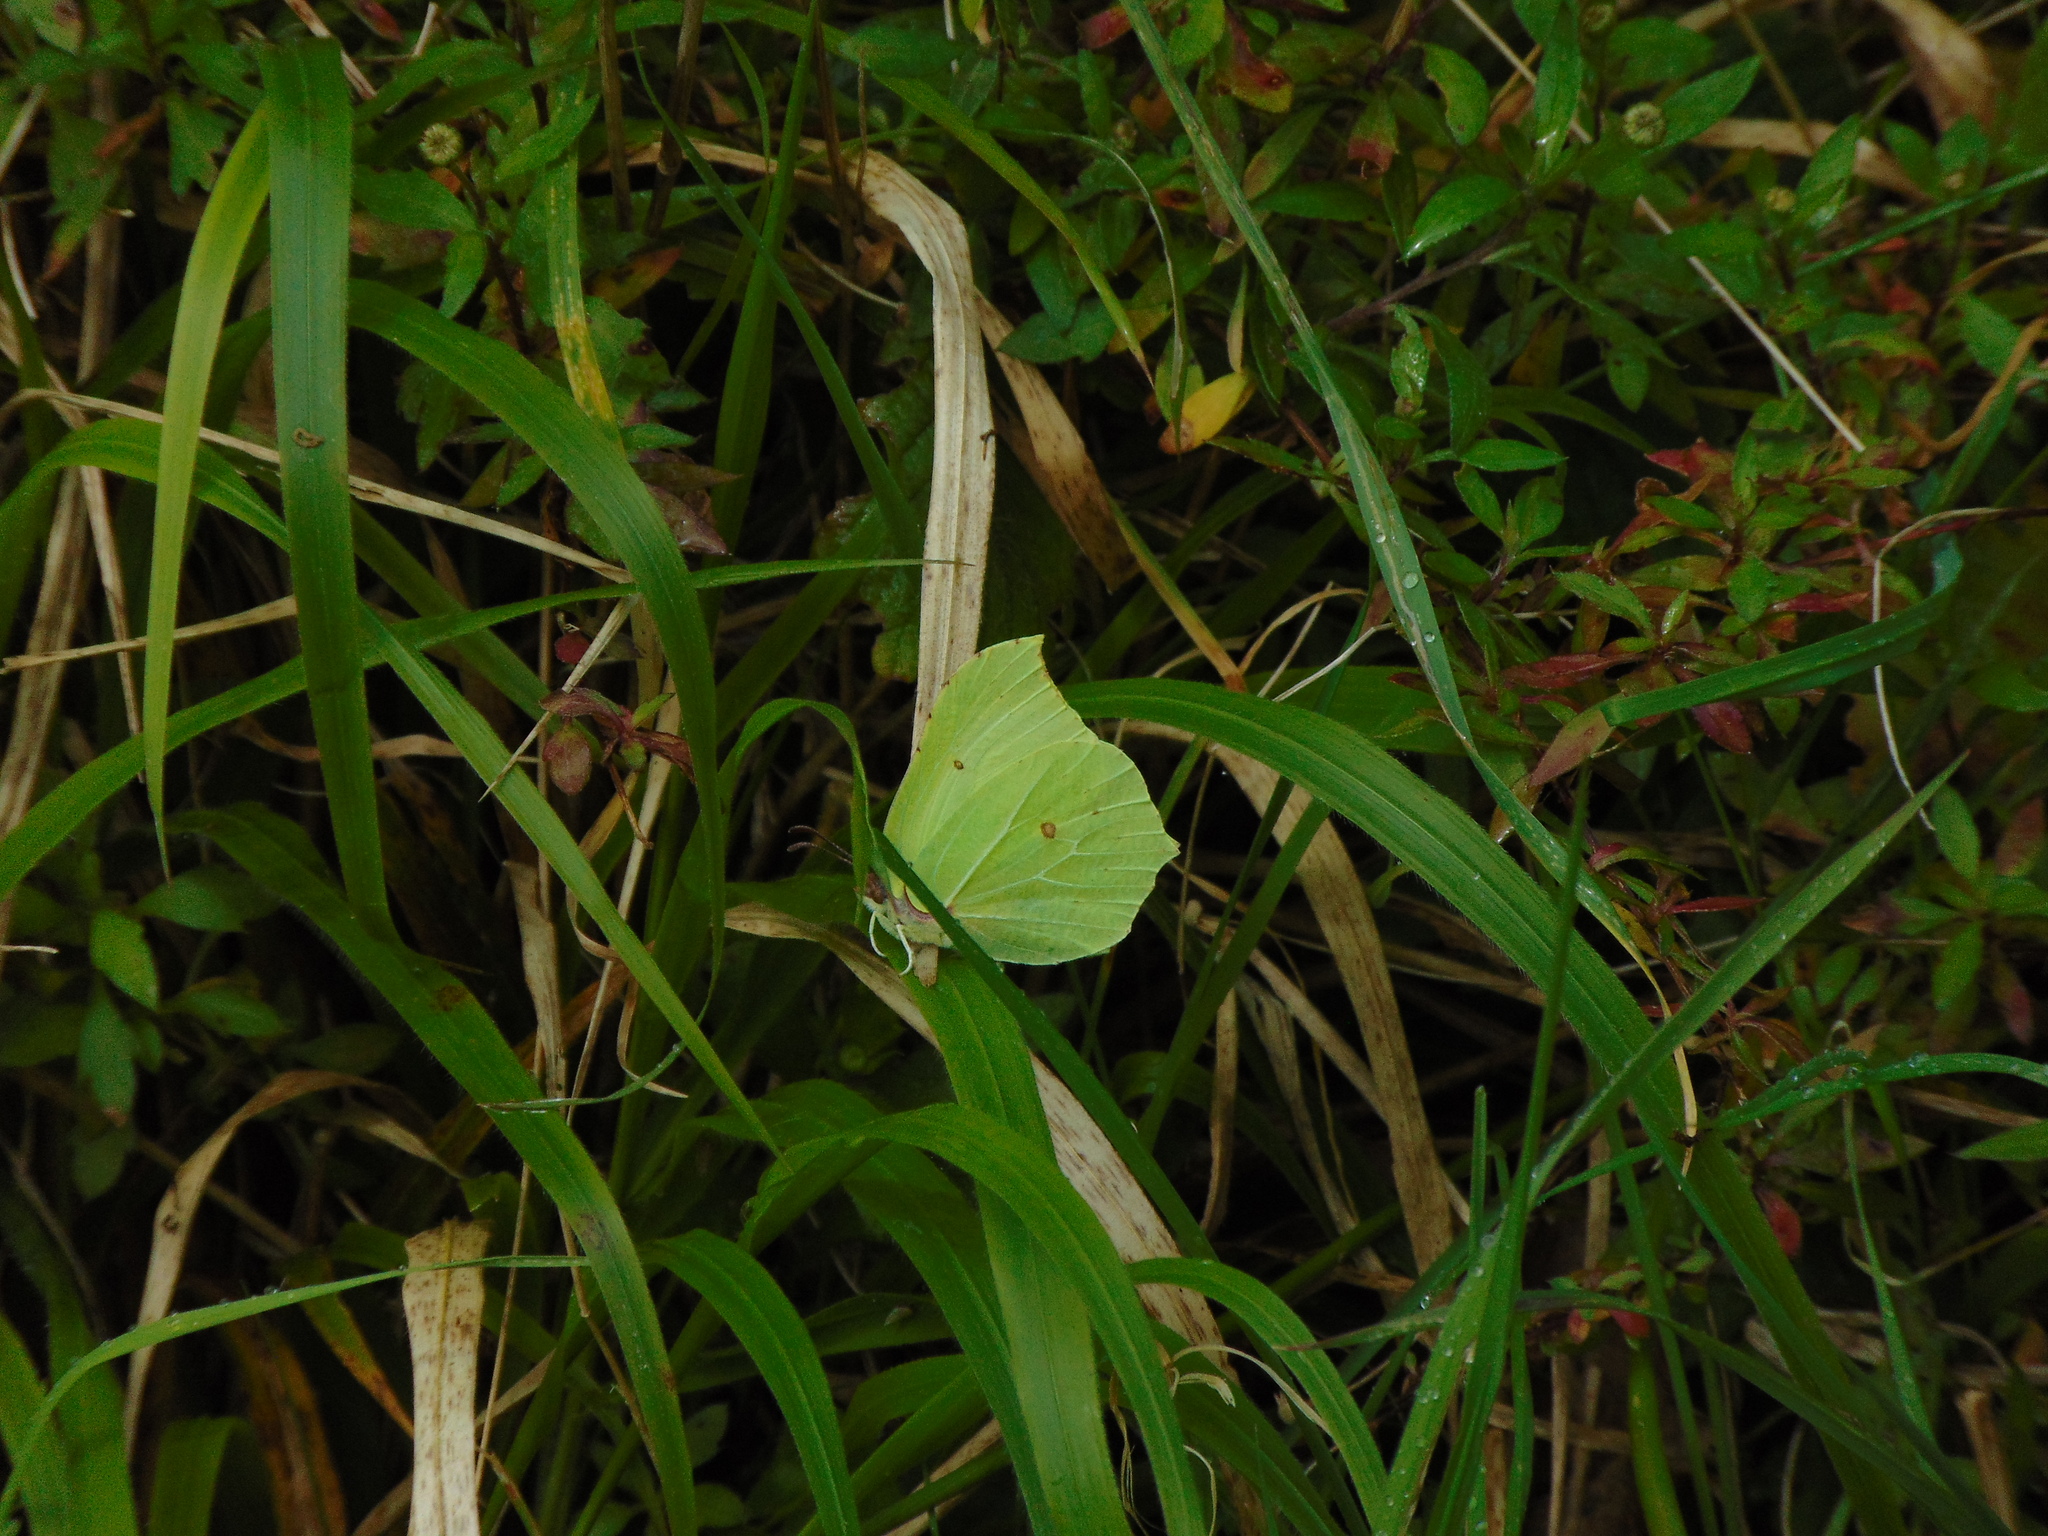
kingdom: Animalia
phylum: Arthropoda
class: Insecta
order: Lepidoptera
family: Pieridae
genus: Gonepteryx
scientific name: Gonepteryx rhamni
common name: Brimstone
